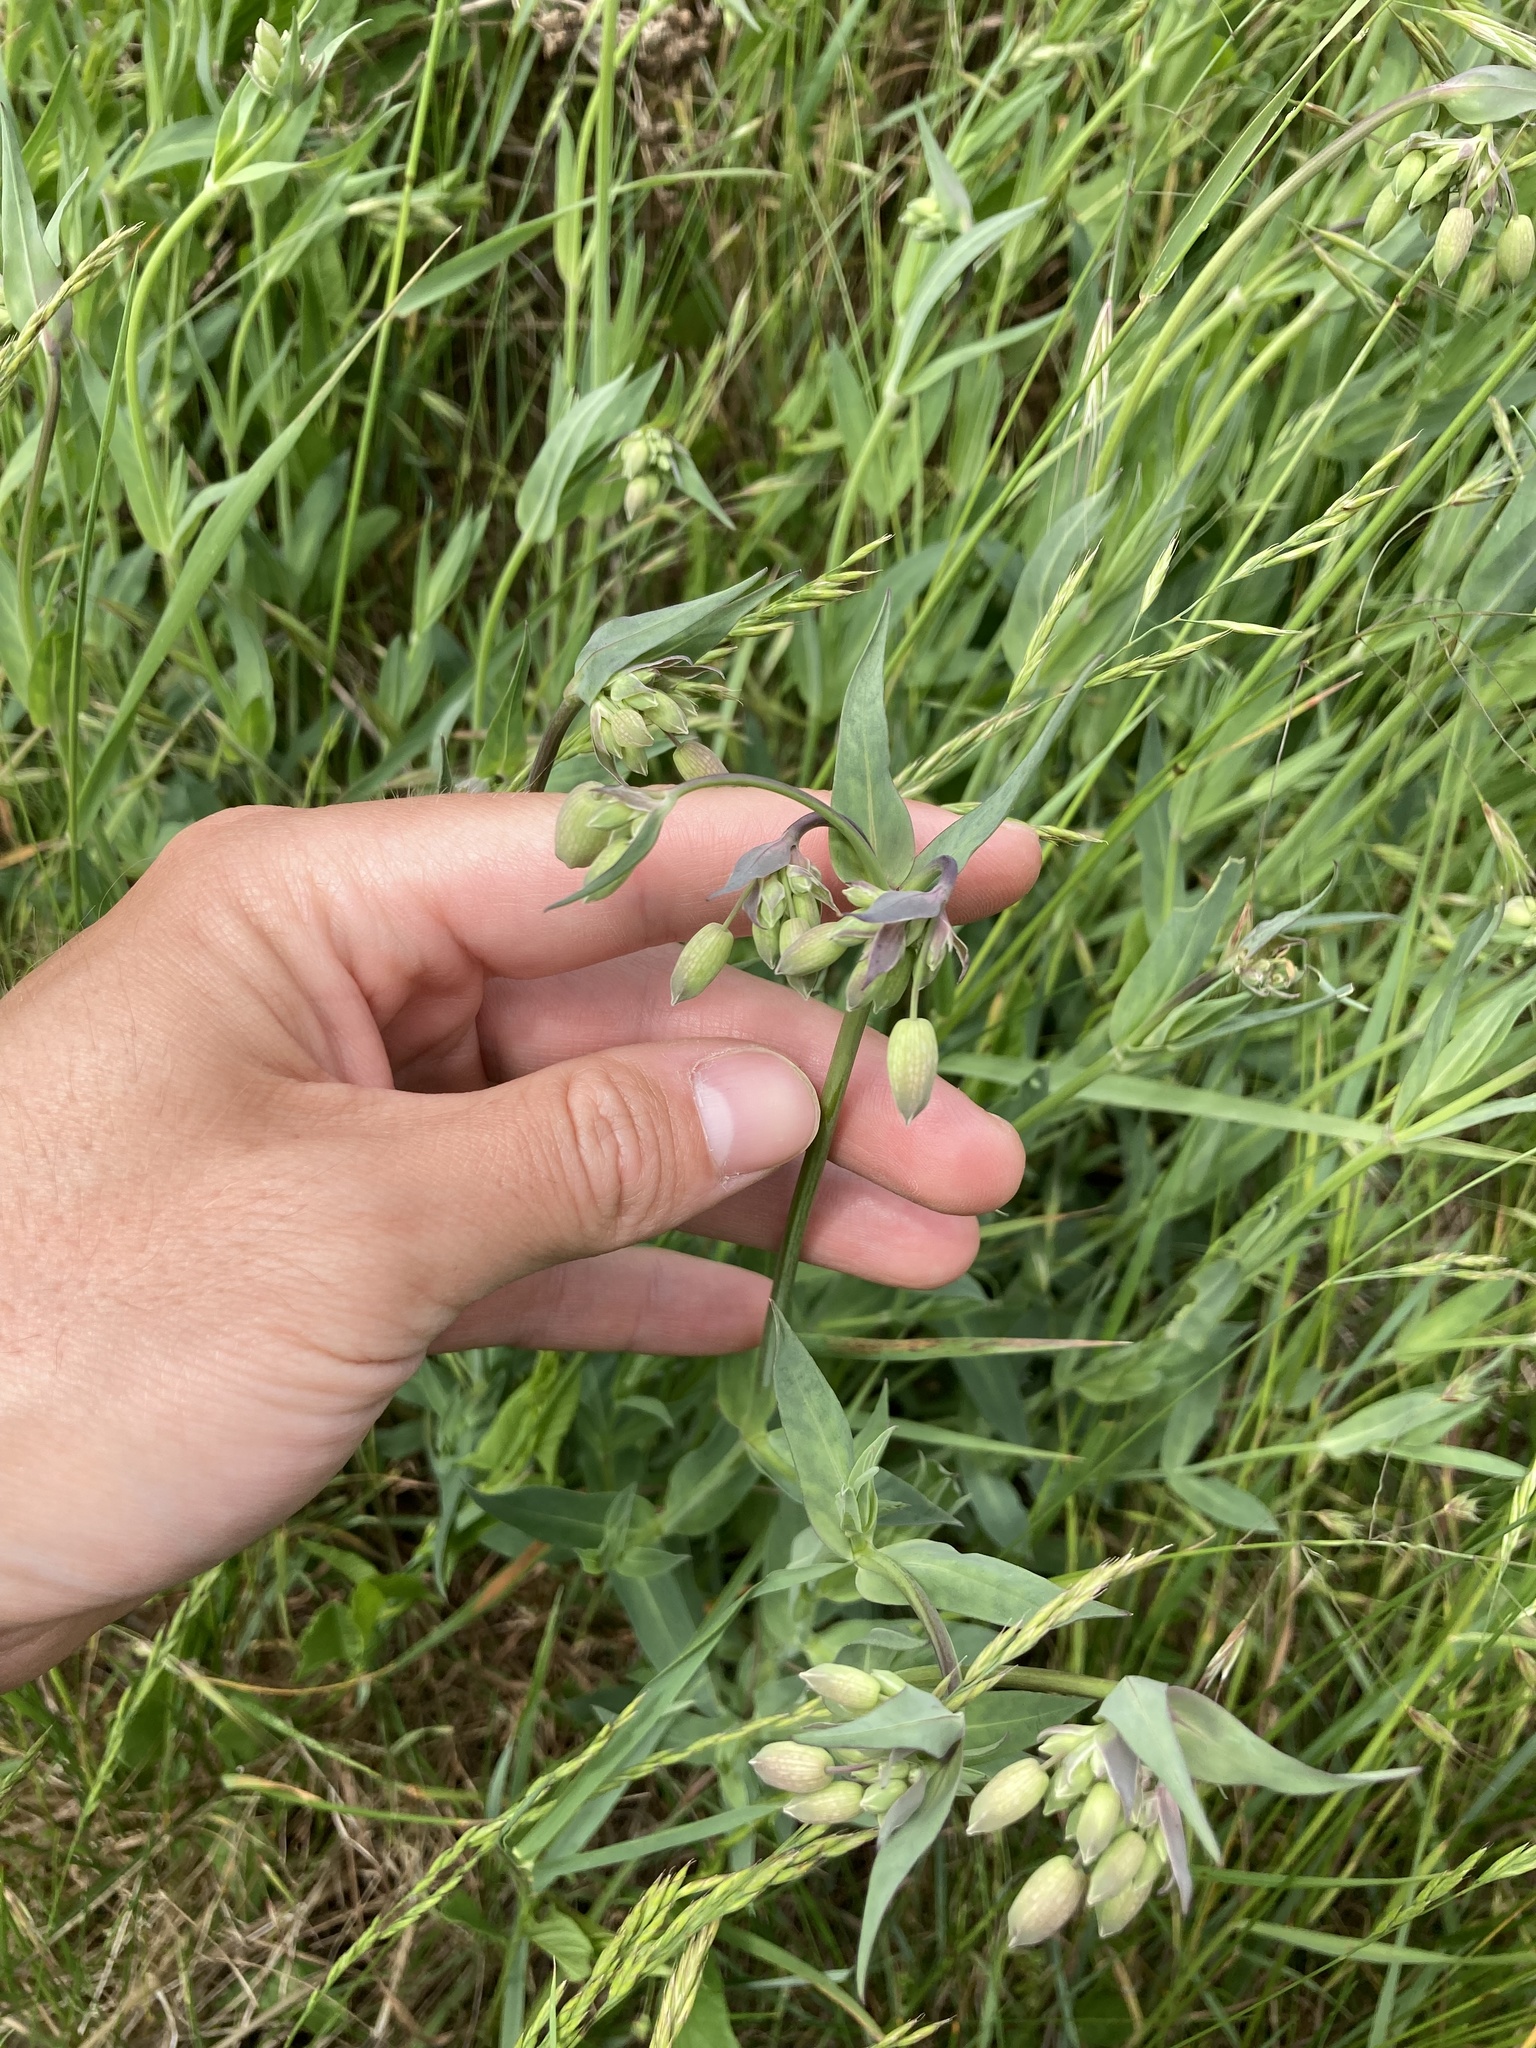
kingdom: Plantae
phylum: Tracheophyta
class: Magnoliopsida
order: Caryophyllales
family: Caryophyllaceae
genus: Silene
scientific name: Silene vulgaris
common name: Bladder campion
